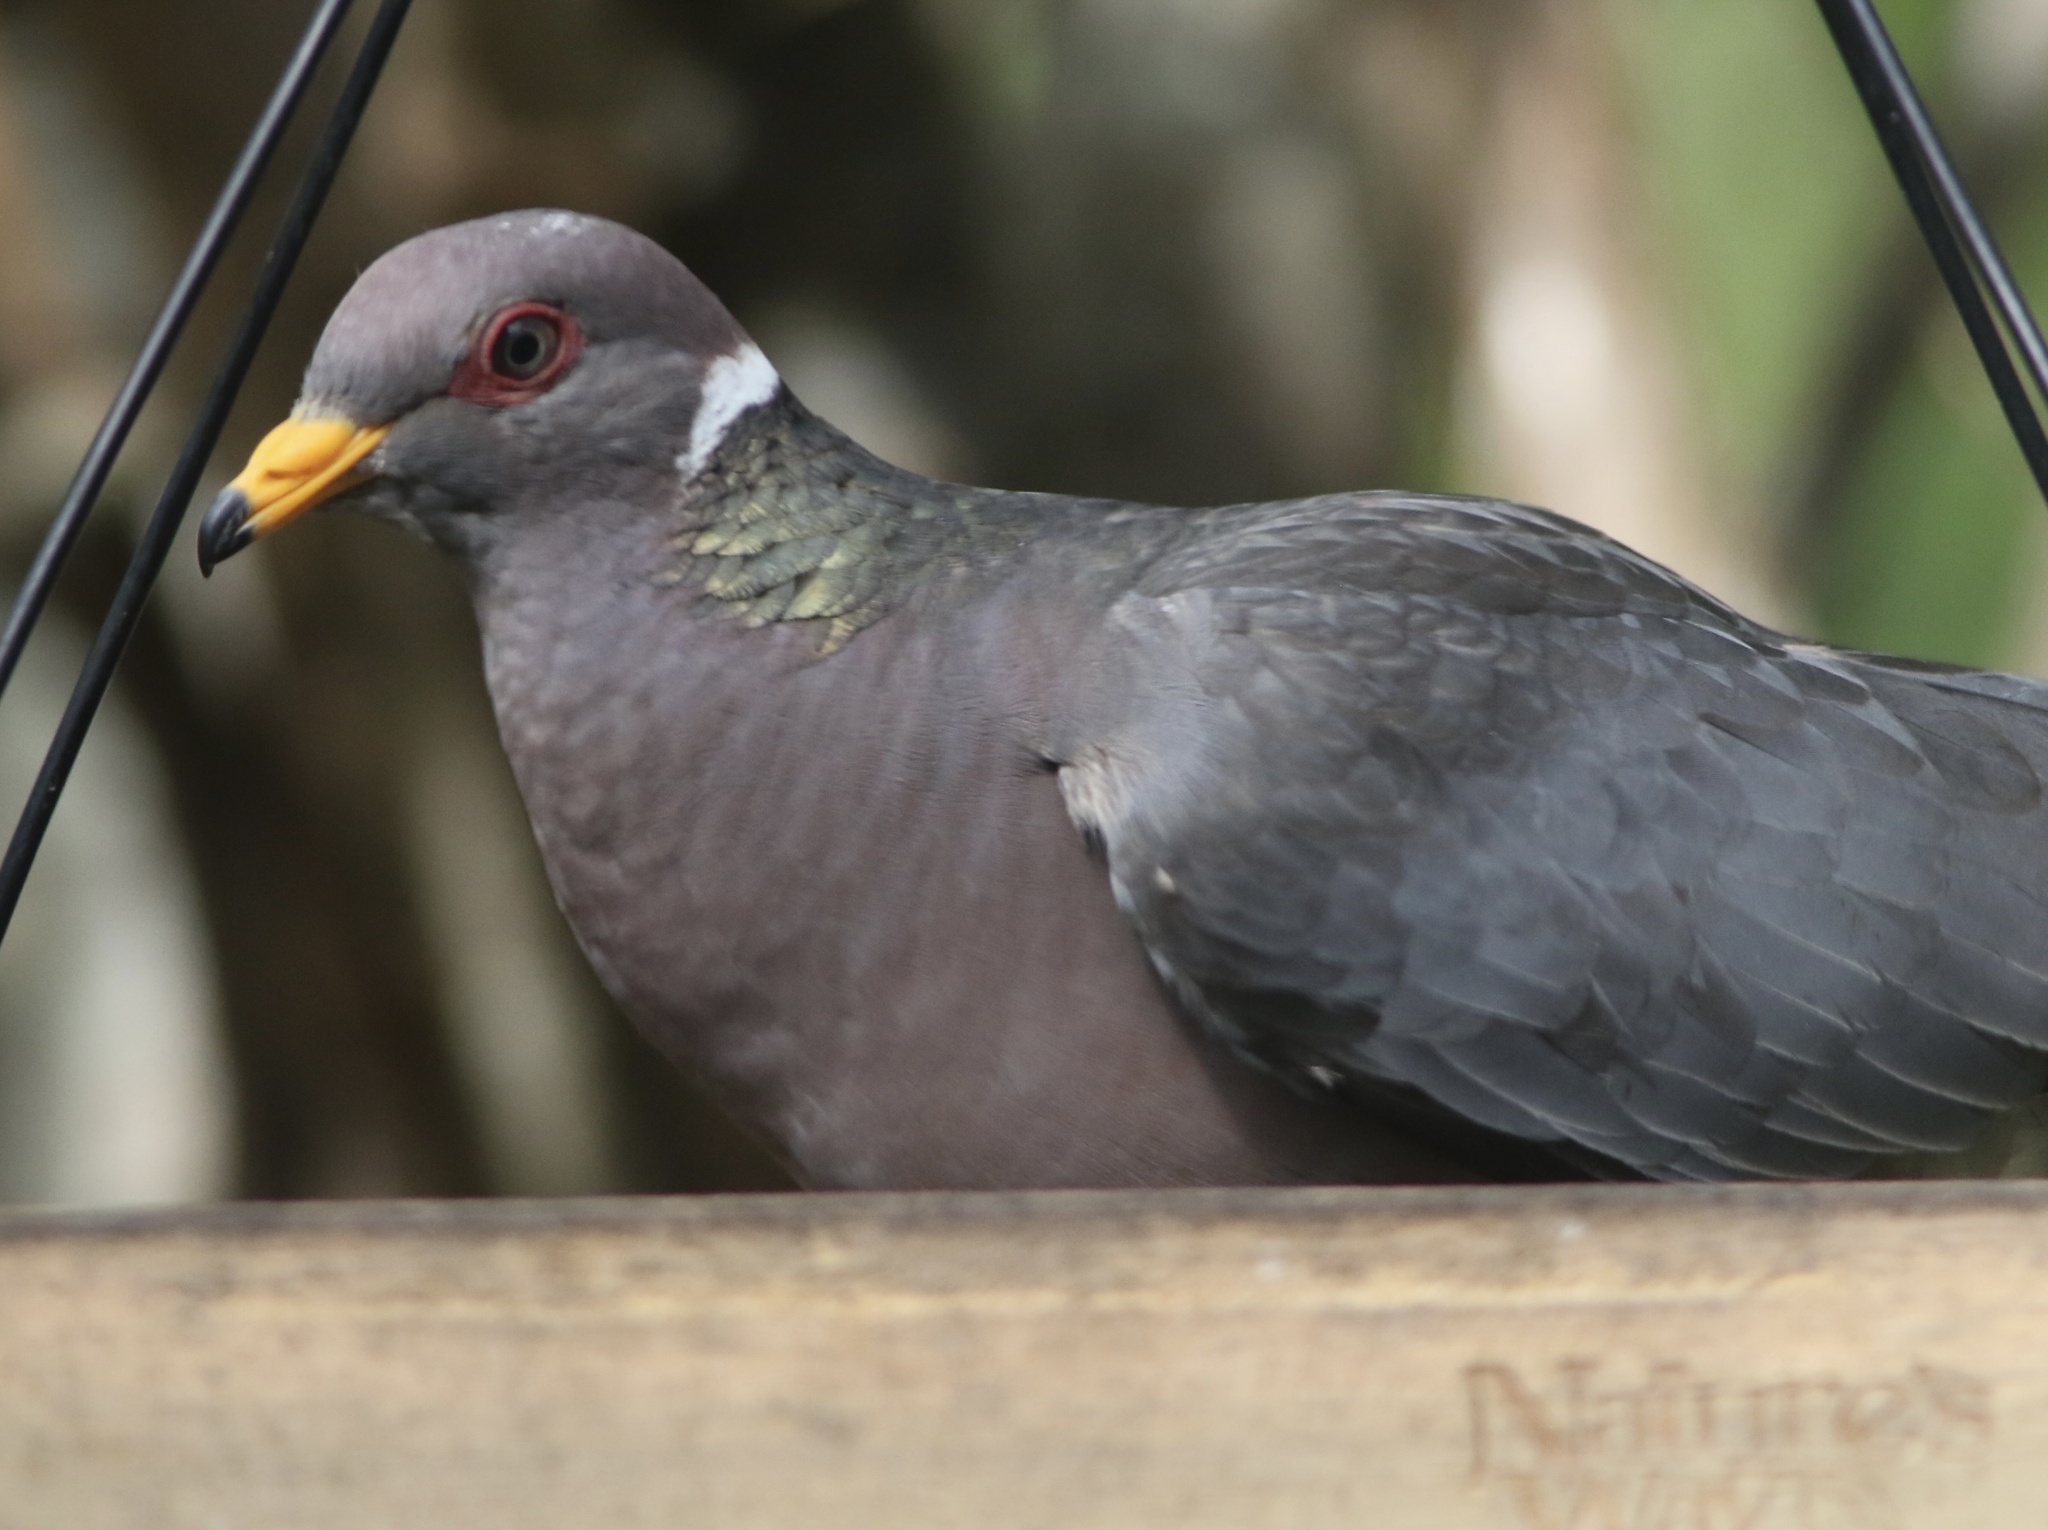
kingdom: Animalia
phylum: Chordata
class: Aves
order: Columbiformes
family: Columbidae
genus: Patagioenas
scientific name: Patagioenas fasciata
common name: Band-tailed pigeon
